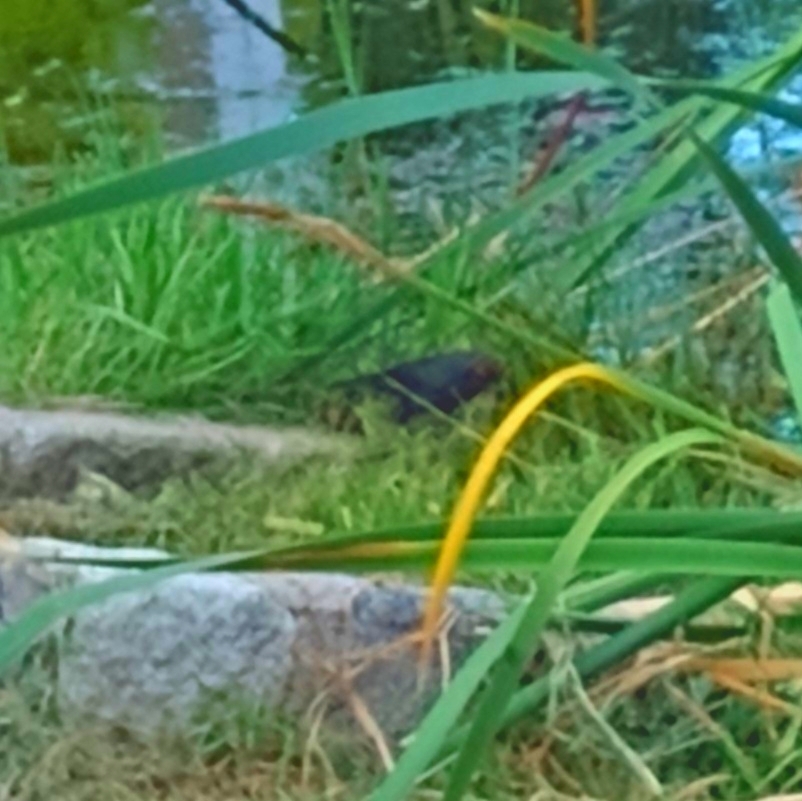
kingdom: Animalia
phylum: Chordata
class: Aves
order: Passeriformes
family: Icteridae
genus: Chrysomus
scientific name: Chrysomus ruficapillus
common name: Chestnut-capped blackbird
